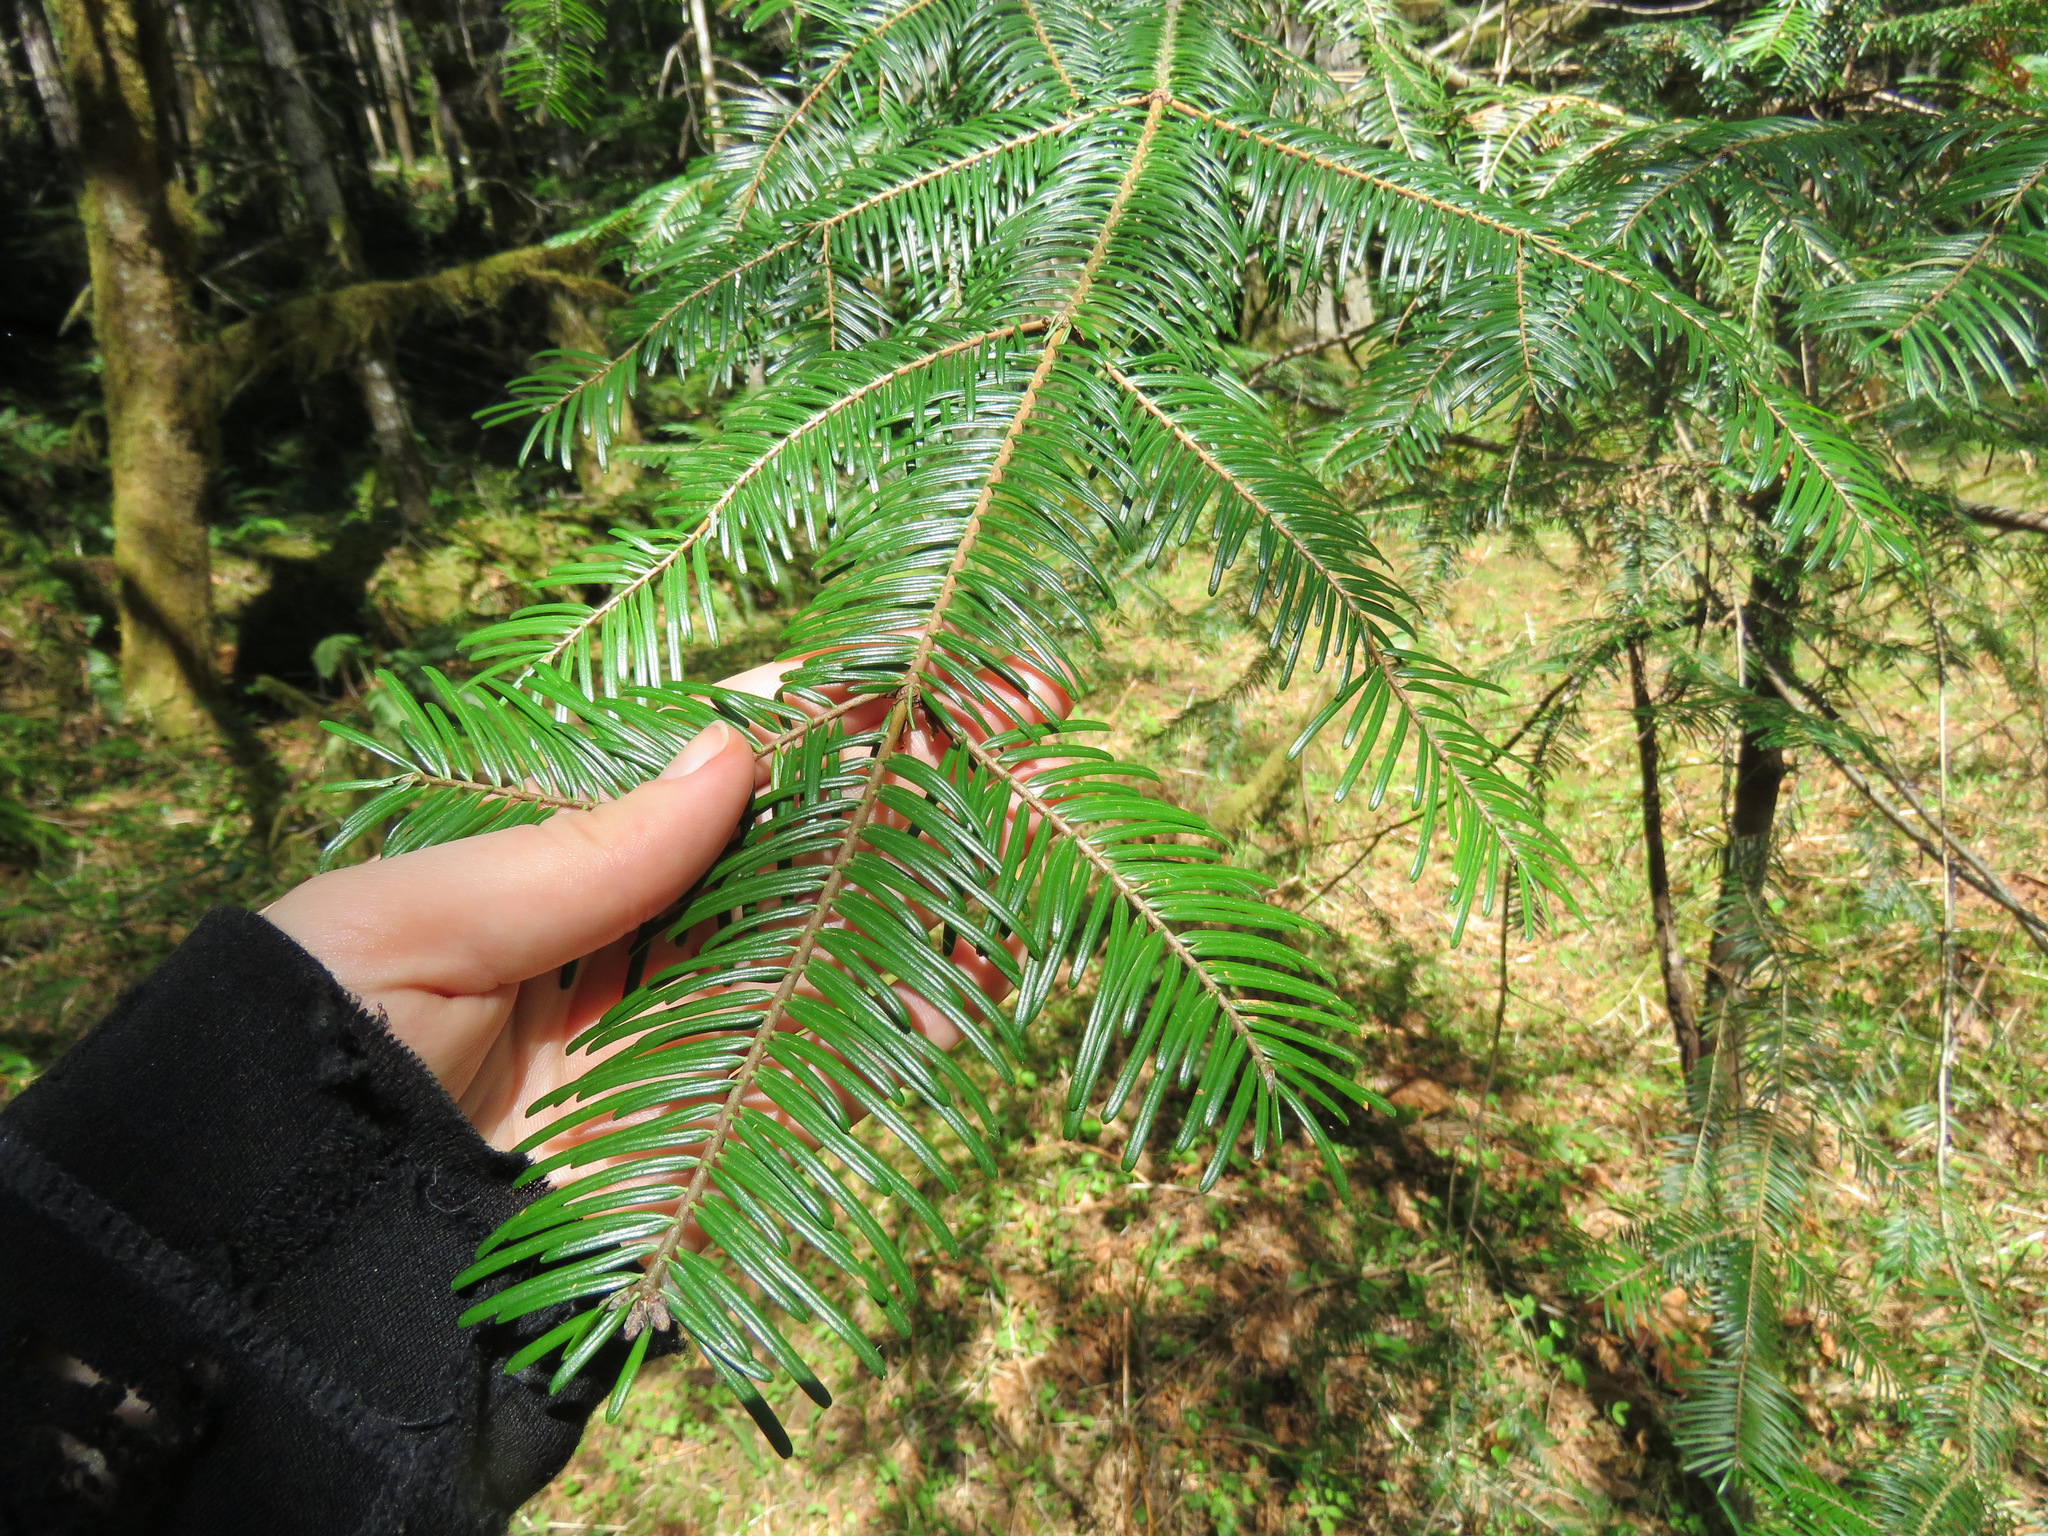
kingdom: Plantae
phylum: Tracheophyta
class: Pinopsida
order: Pinales
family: Pinaceae
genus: Abies
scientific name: Abies grandis
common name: Giant fir
